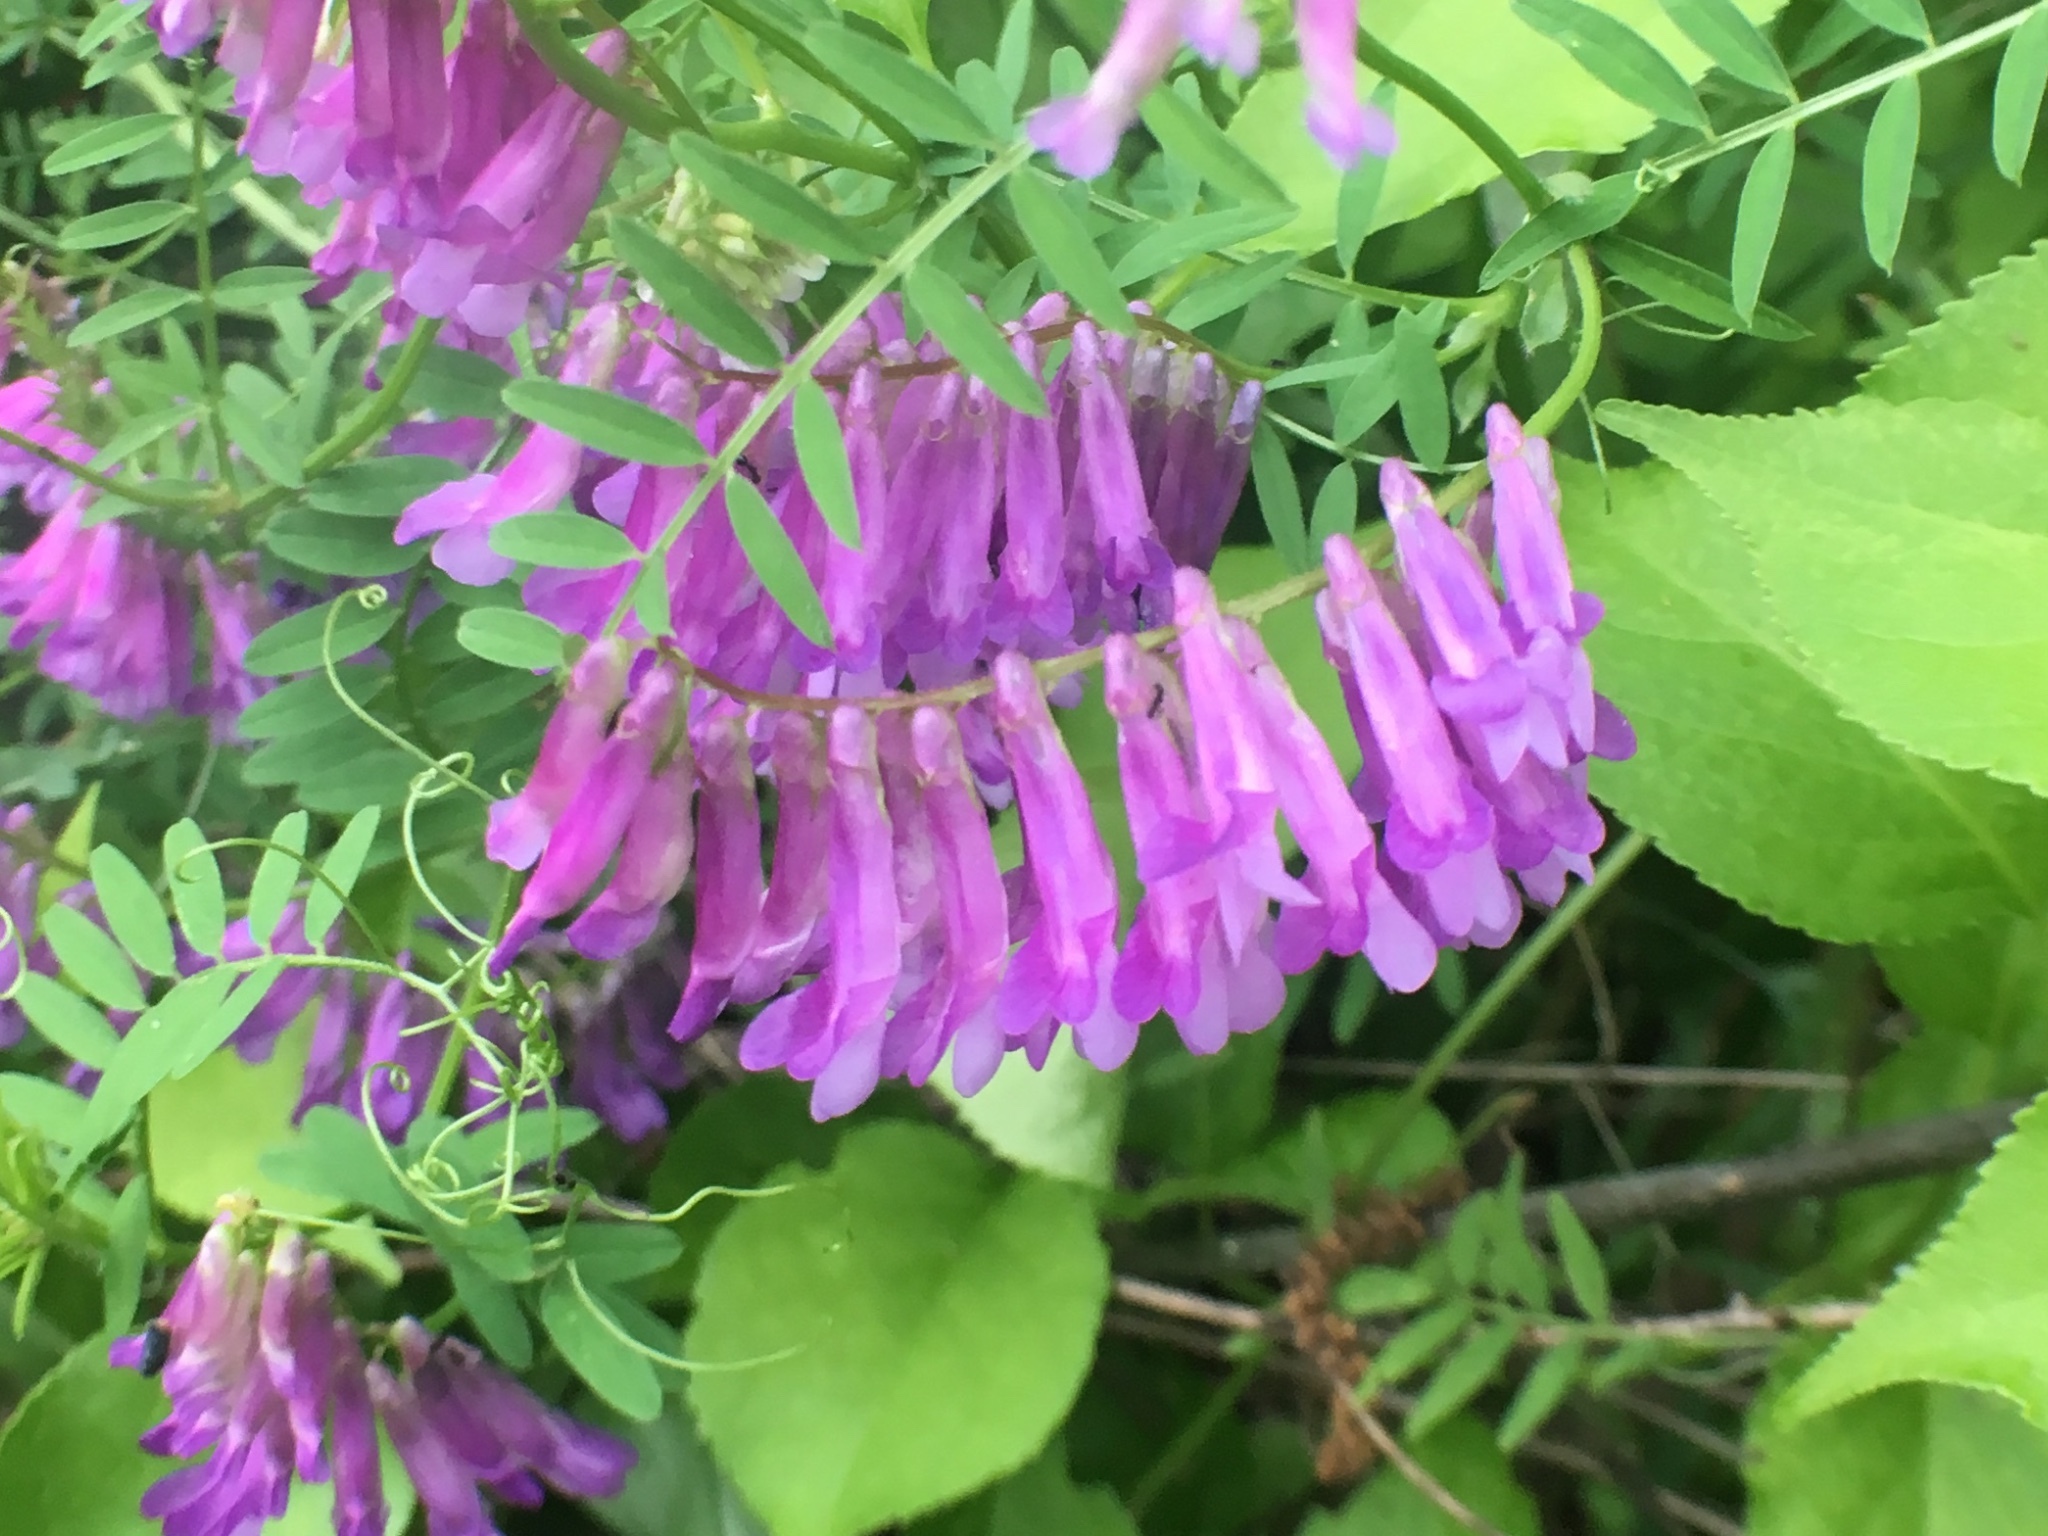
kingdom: Plantae
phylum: Tracheophyta
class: Magnoliopsida
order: Fabales
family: Fabaceae
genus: Vicia
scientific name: Vicia villosa
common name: Fodder vetch
